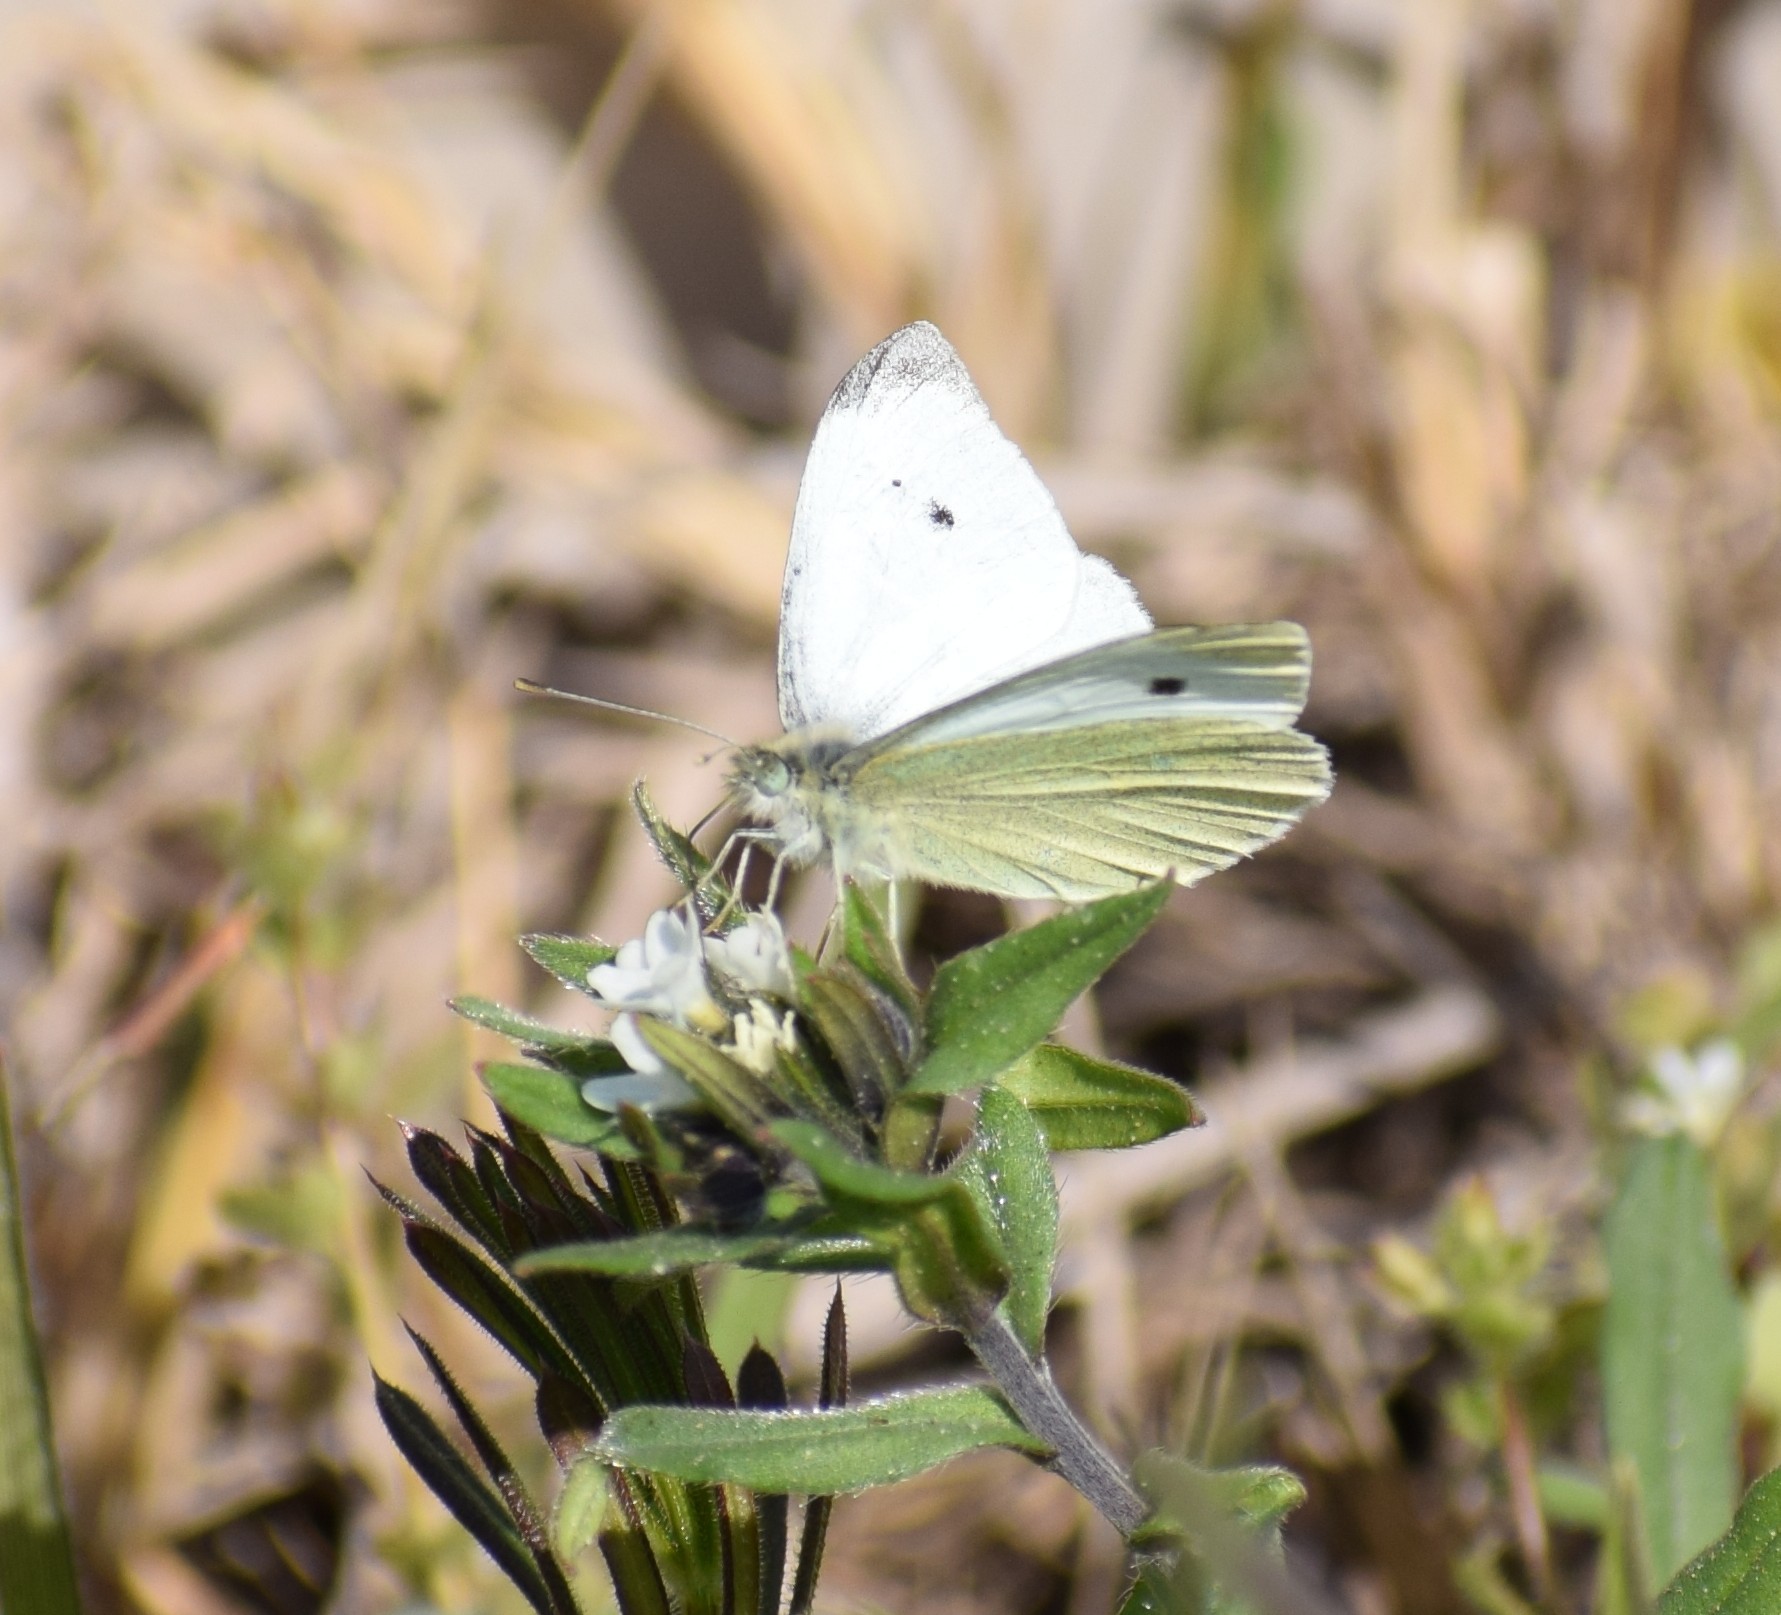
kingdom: Animalia
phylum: Arthropoda
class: Insecta
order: Lepidoptera
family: Pieridae
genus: Pieris
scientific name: Pieris rapae
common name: Small white
